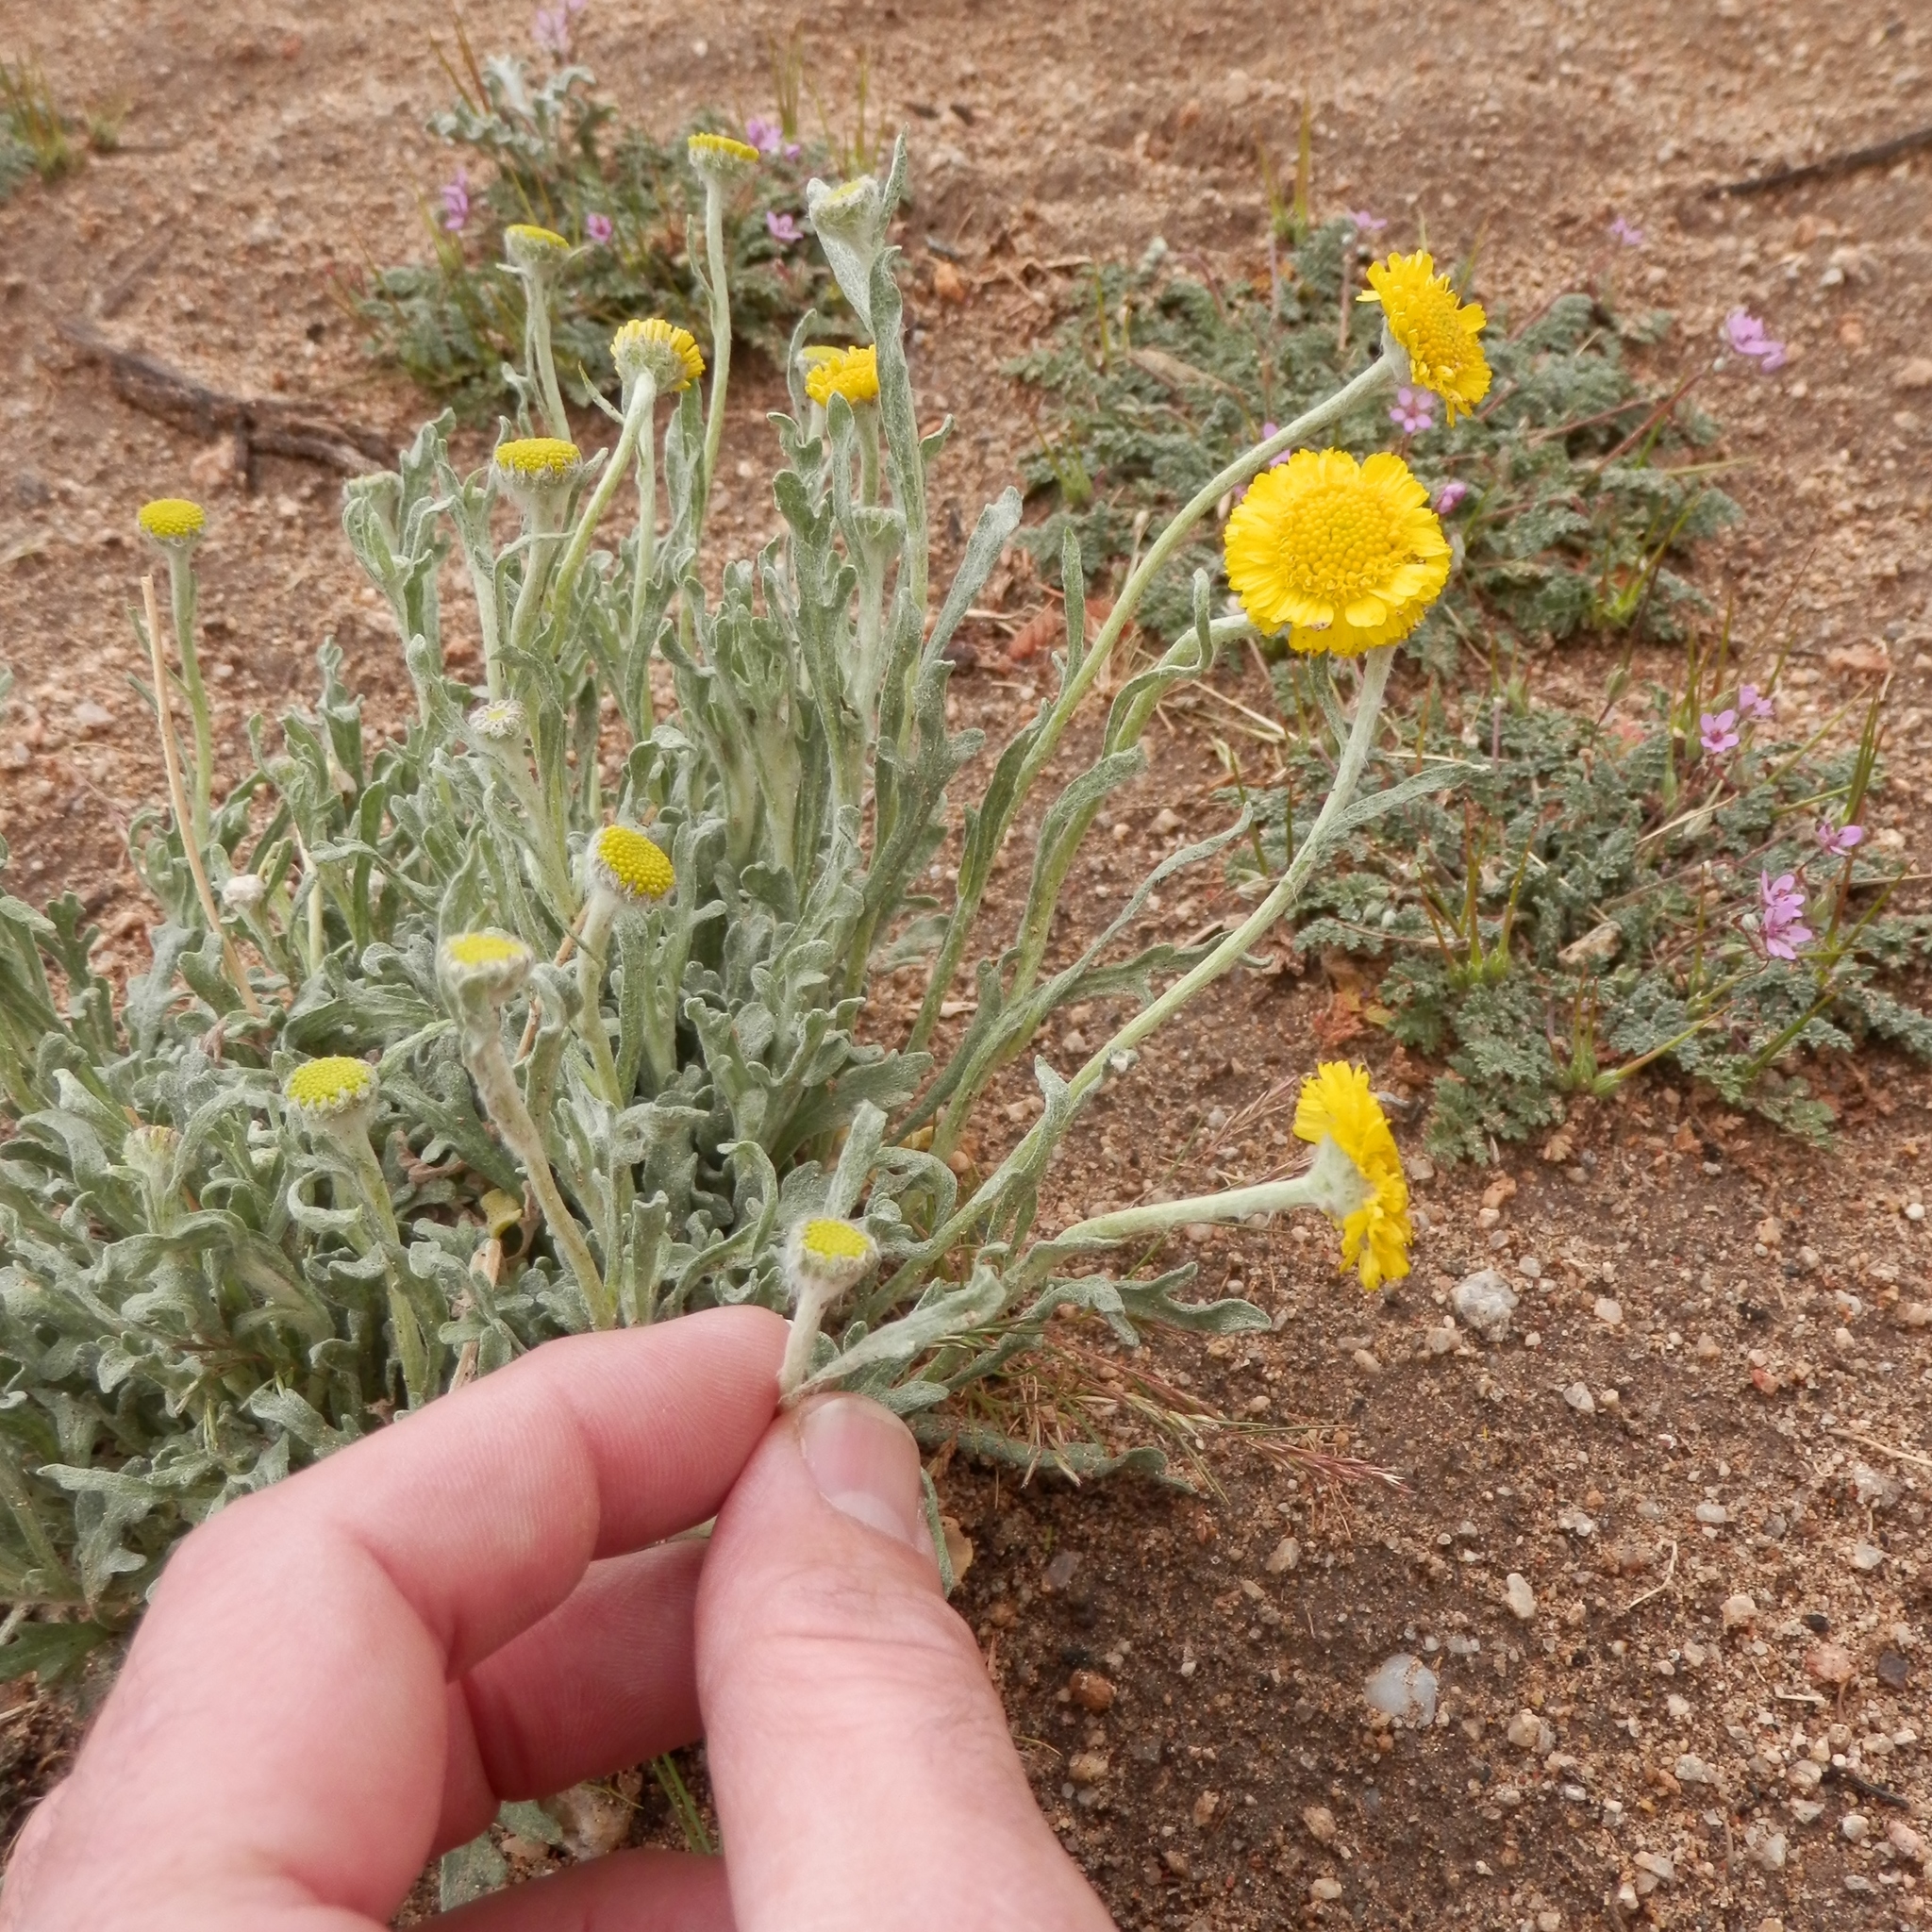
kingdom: Plantae
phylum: Tracheophyta
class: Magnoliopsida
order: Asterales
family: Asteraceae
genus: Baileya
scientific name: Baileya pleniradiata
